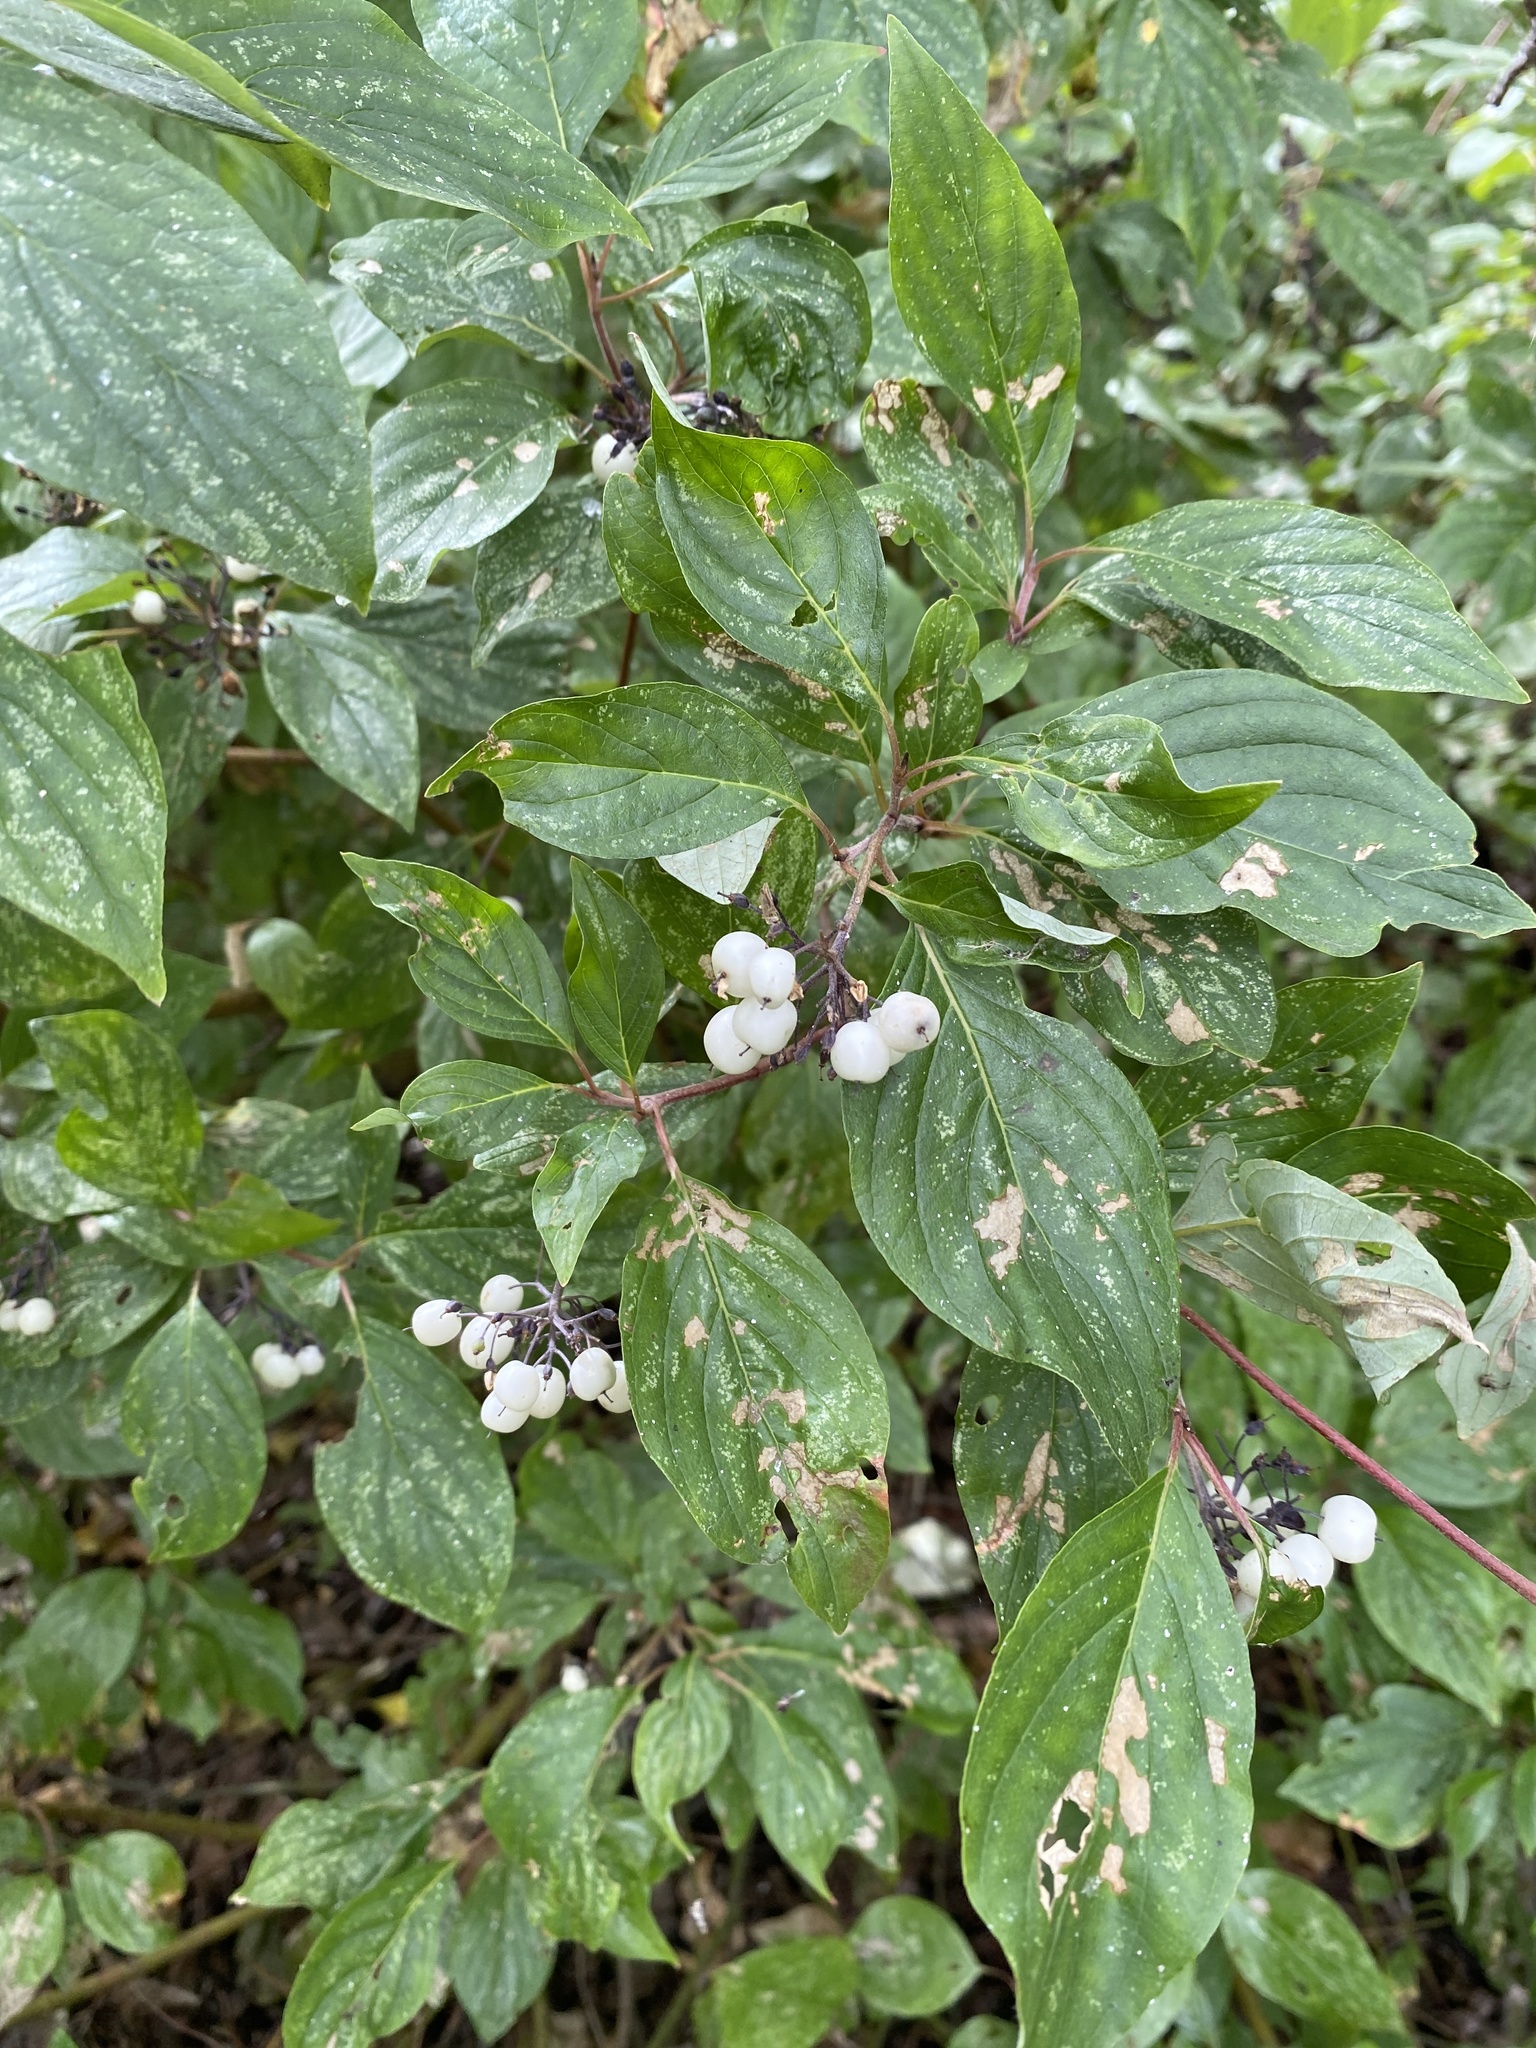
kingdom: Plantae
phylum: Tracheophyta
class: Magnoliopsida
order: Cornales
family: Cornaceae
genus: Cornus
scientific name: Cornus sericea
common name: Red-osier dogwood
